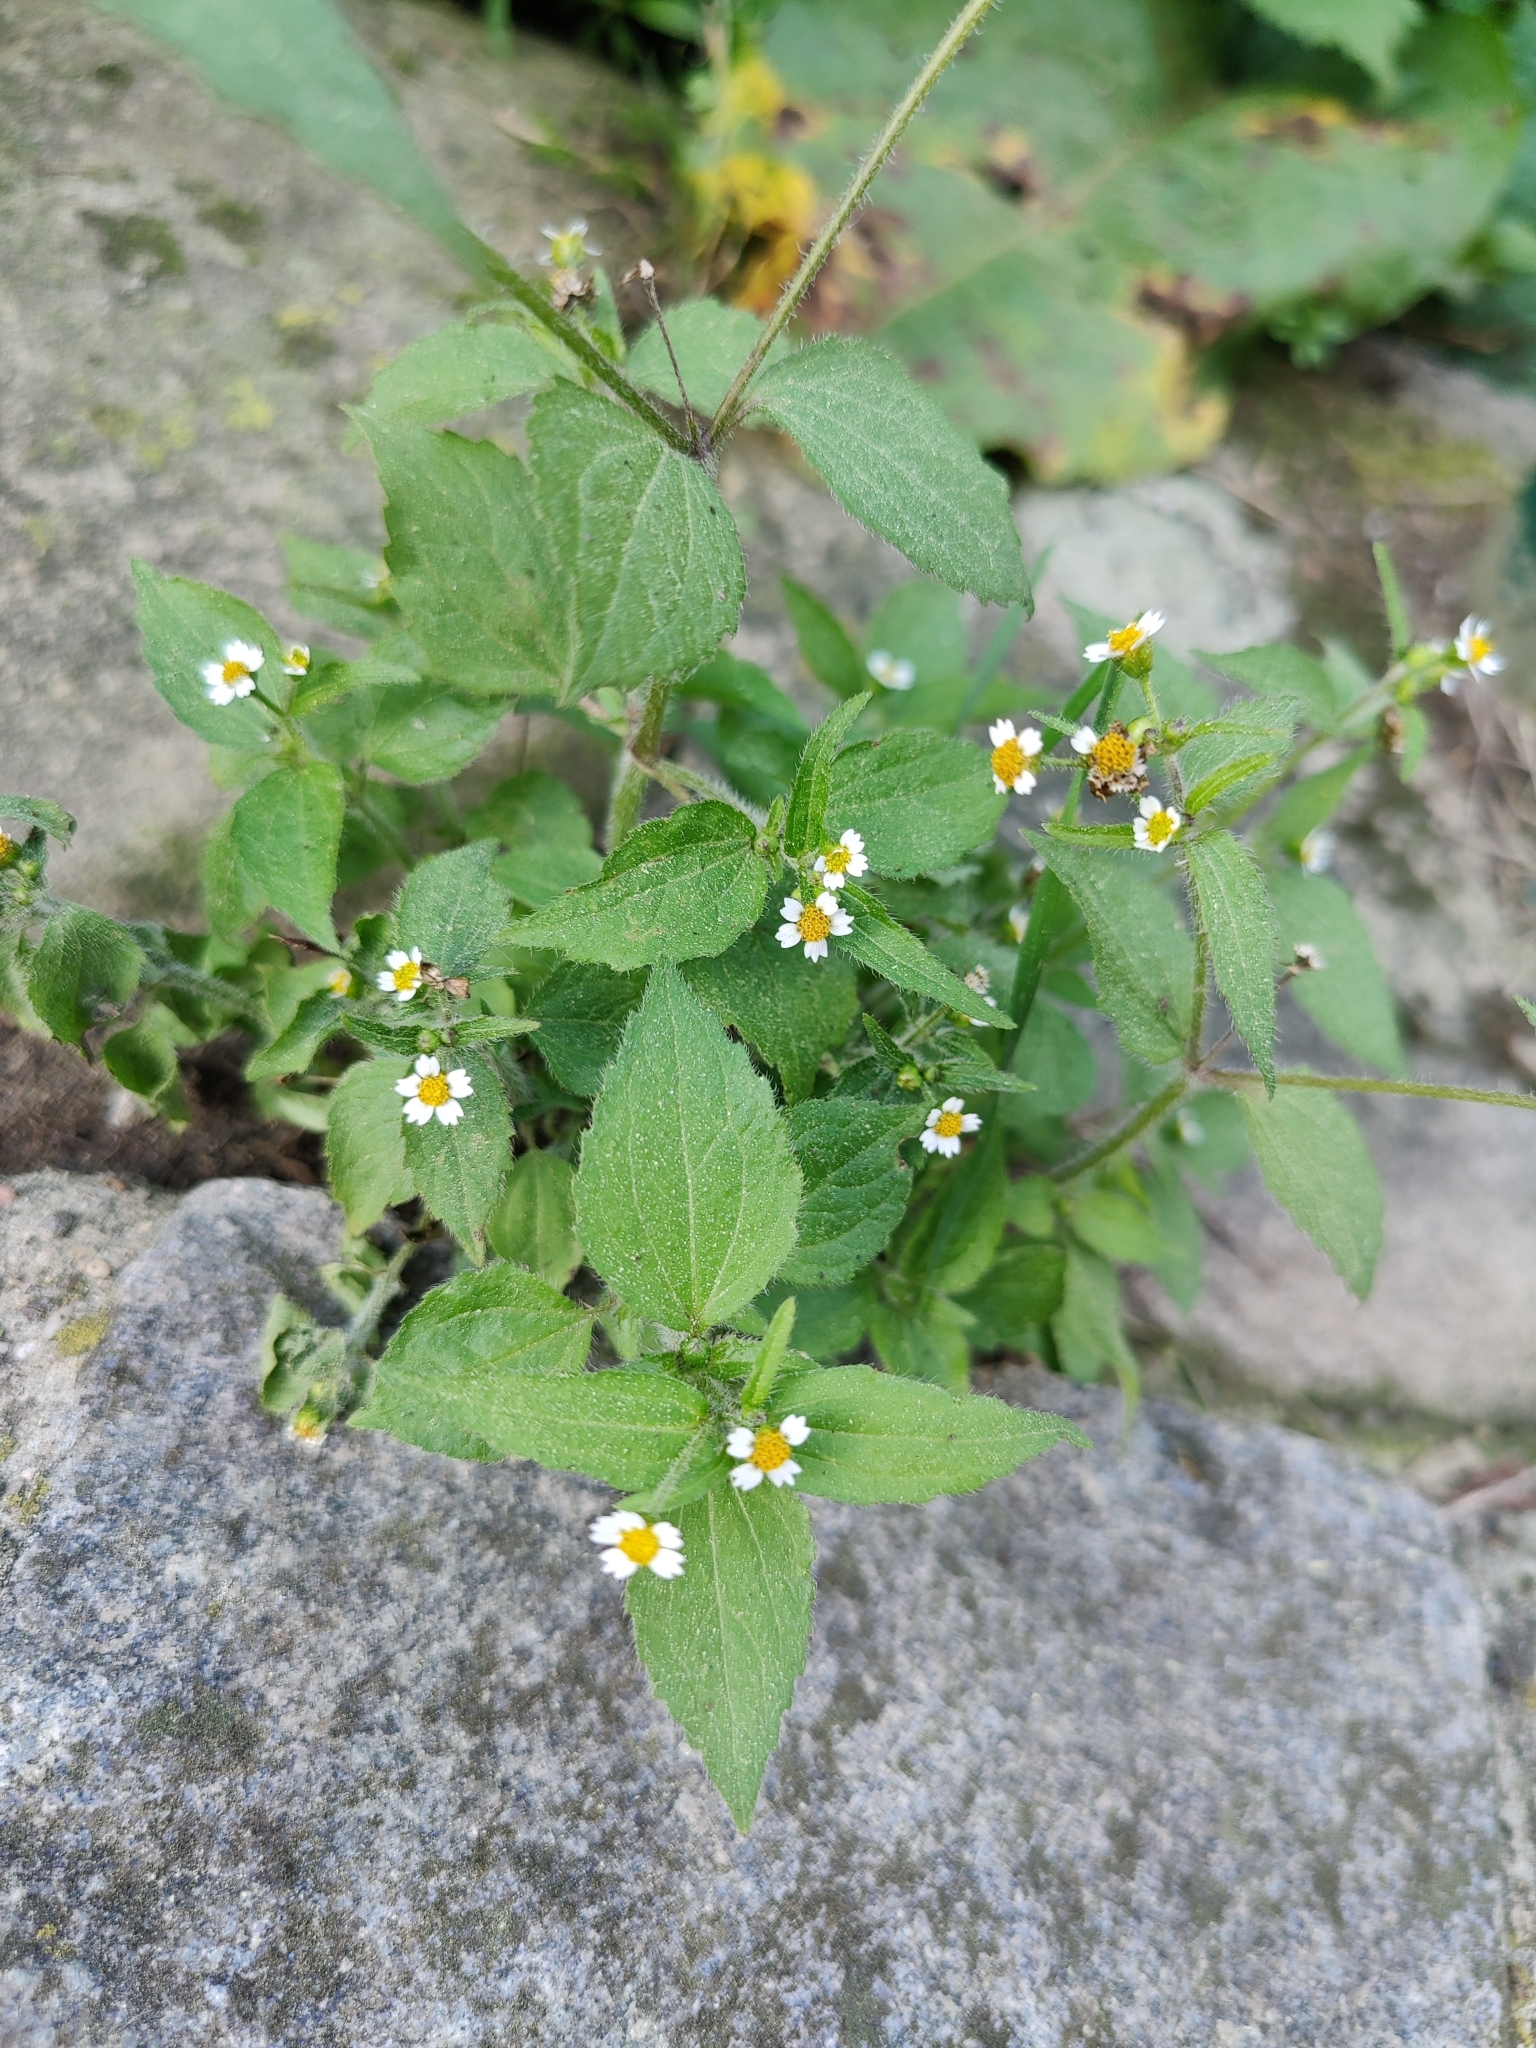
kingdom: Plantae
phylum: Tracheophyta
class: Magnoliopsida
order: Asterales
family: Asteraceae
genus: Galinsoga
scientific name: Galinsoga quadriradiata
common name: Shaggy soldier
